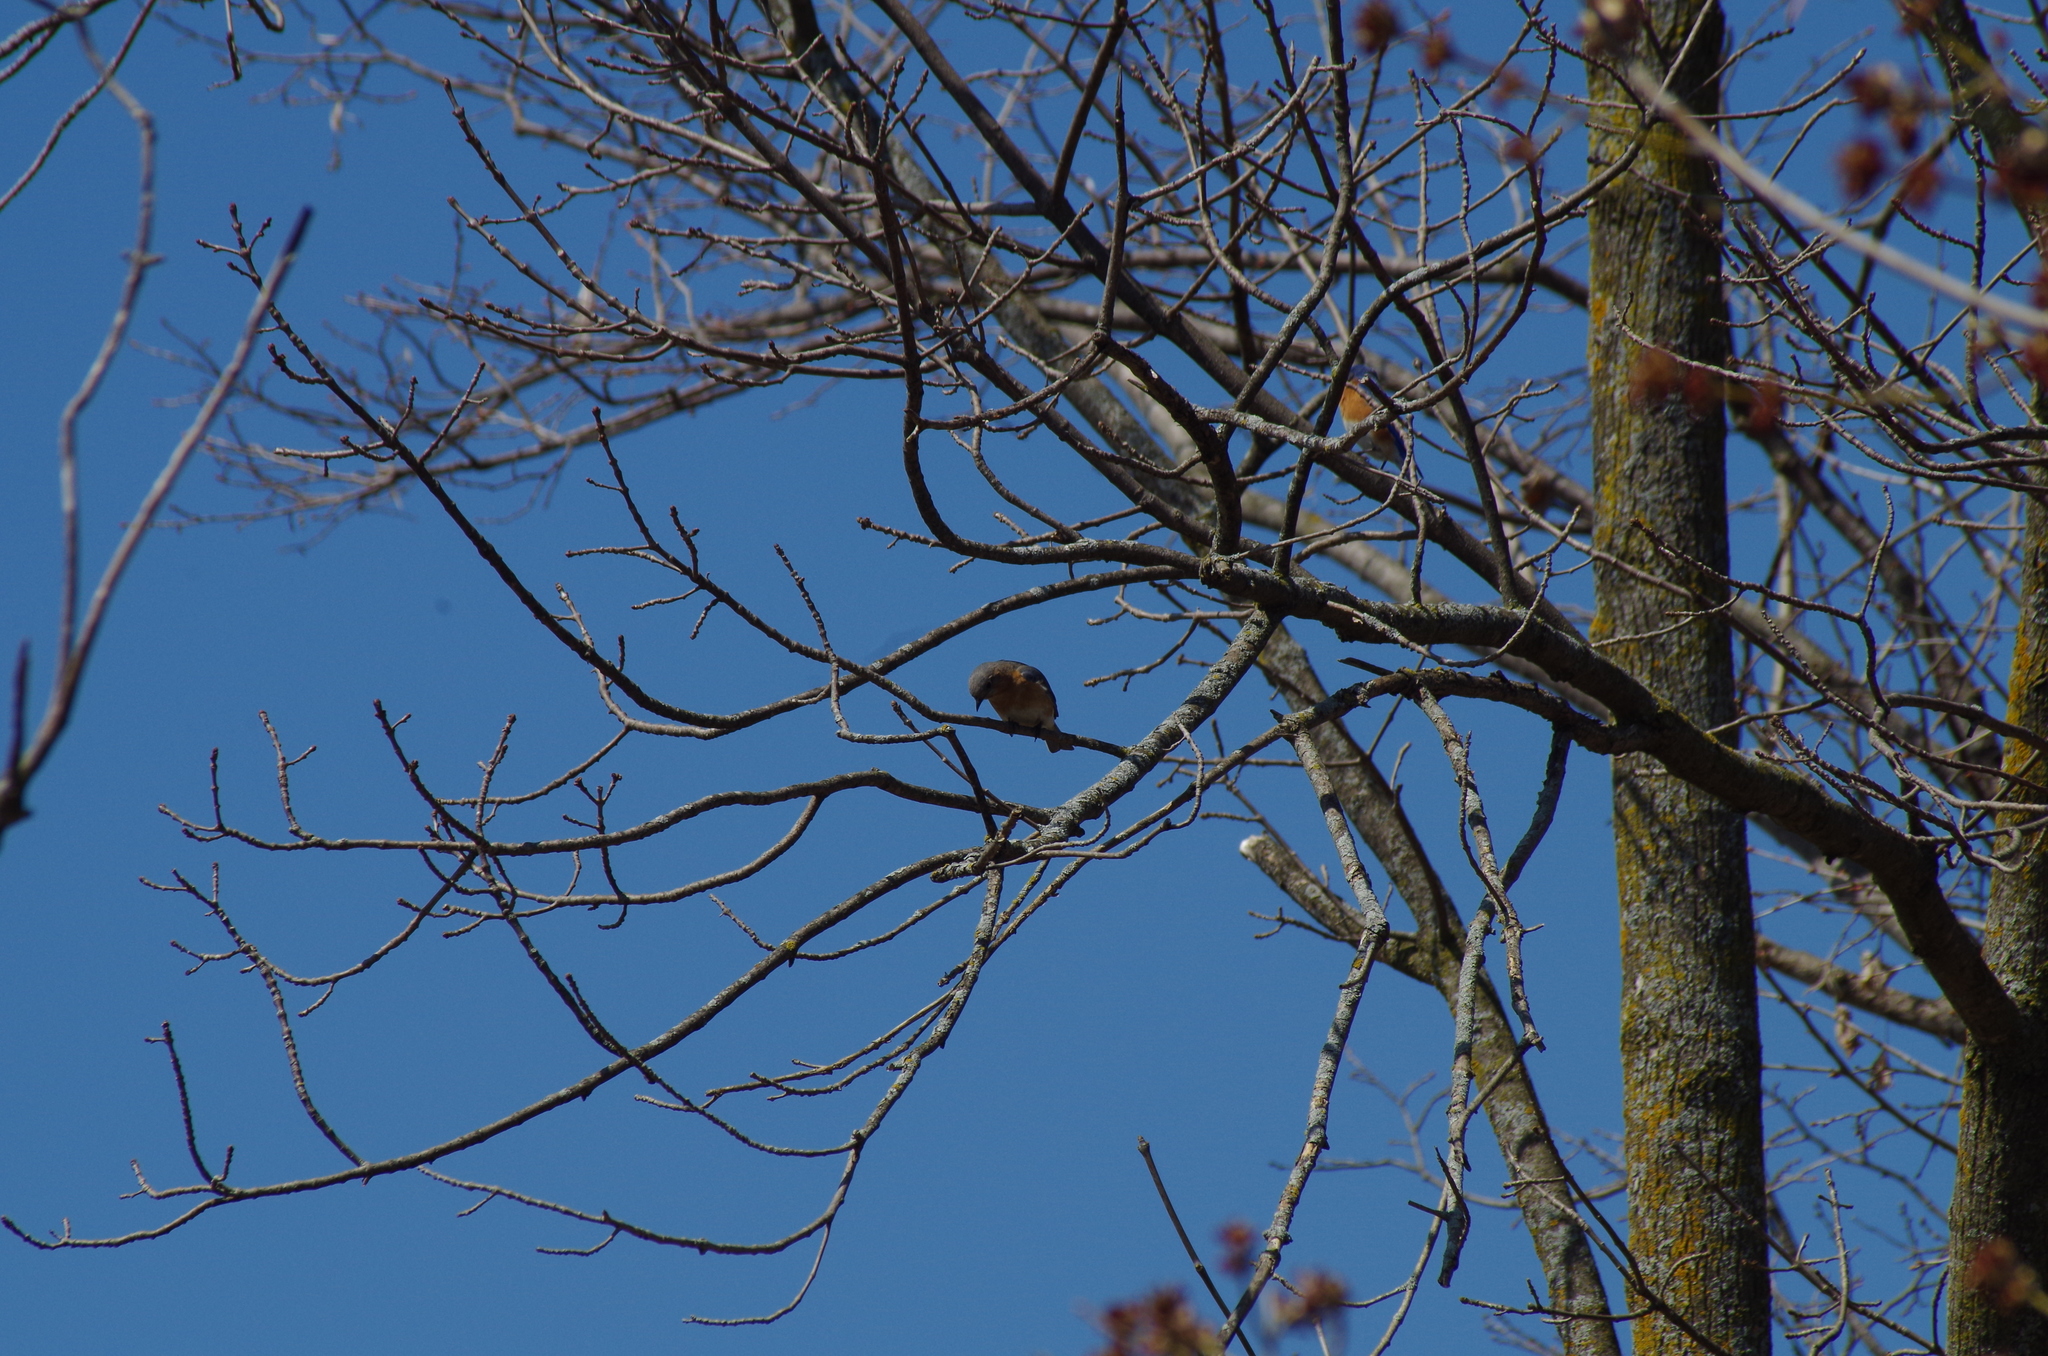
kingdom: Animalia
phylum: Chordata
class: Aves
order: Passeriformes
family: Turdidae
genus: Sialia
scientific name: Sialia sialis
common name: Eastern bluebird
